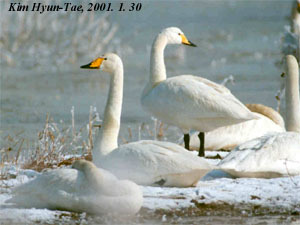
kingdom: Animalia
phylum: Chordata
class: Aves
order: Anseriformes
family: Anatidae
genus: Cygnus
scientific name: Cygnus cygnus
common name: Whooper swan
